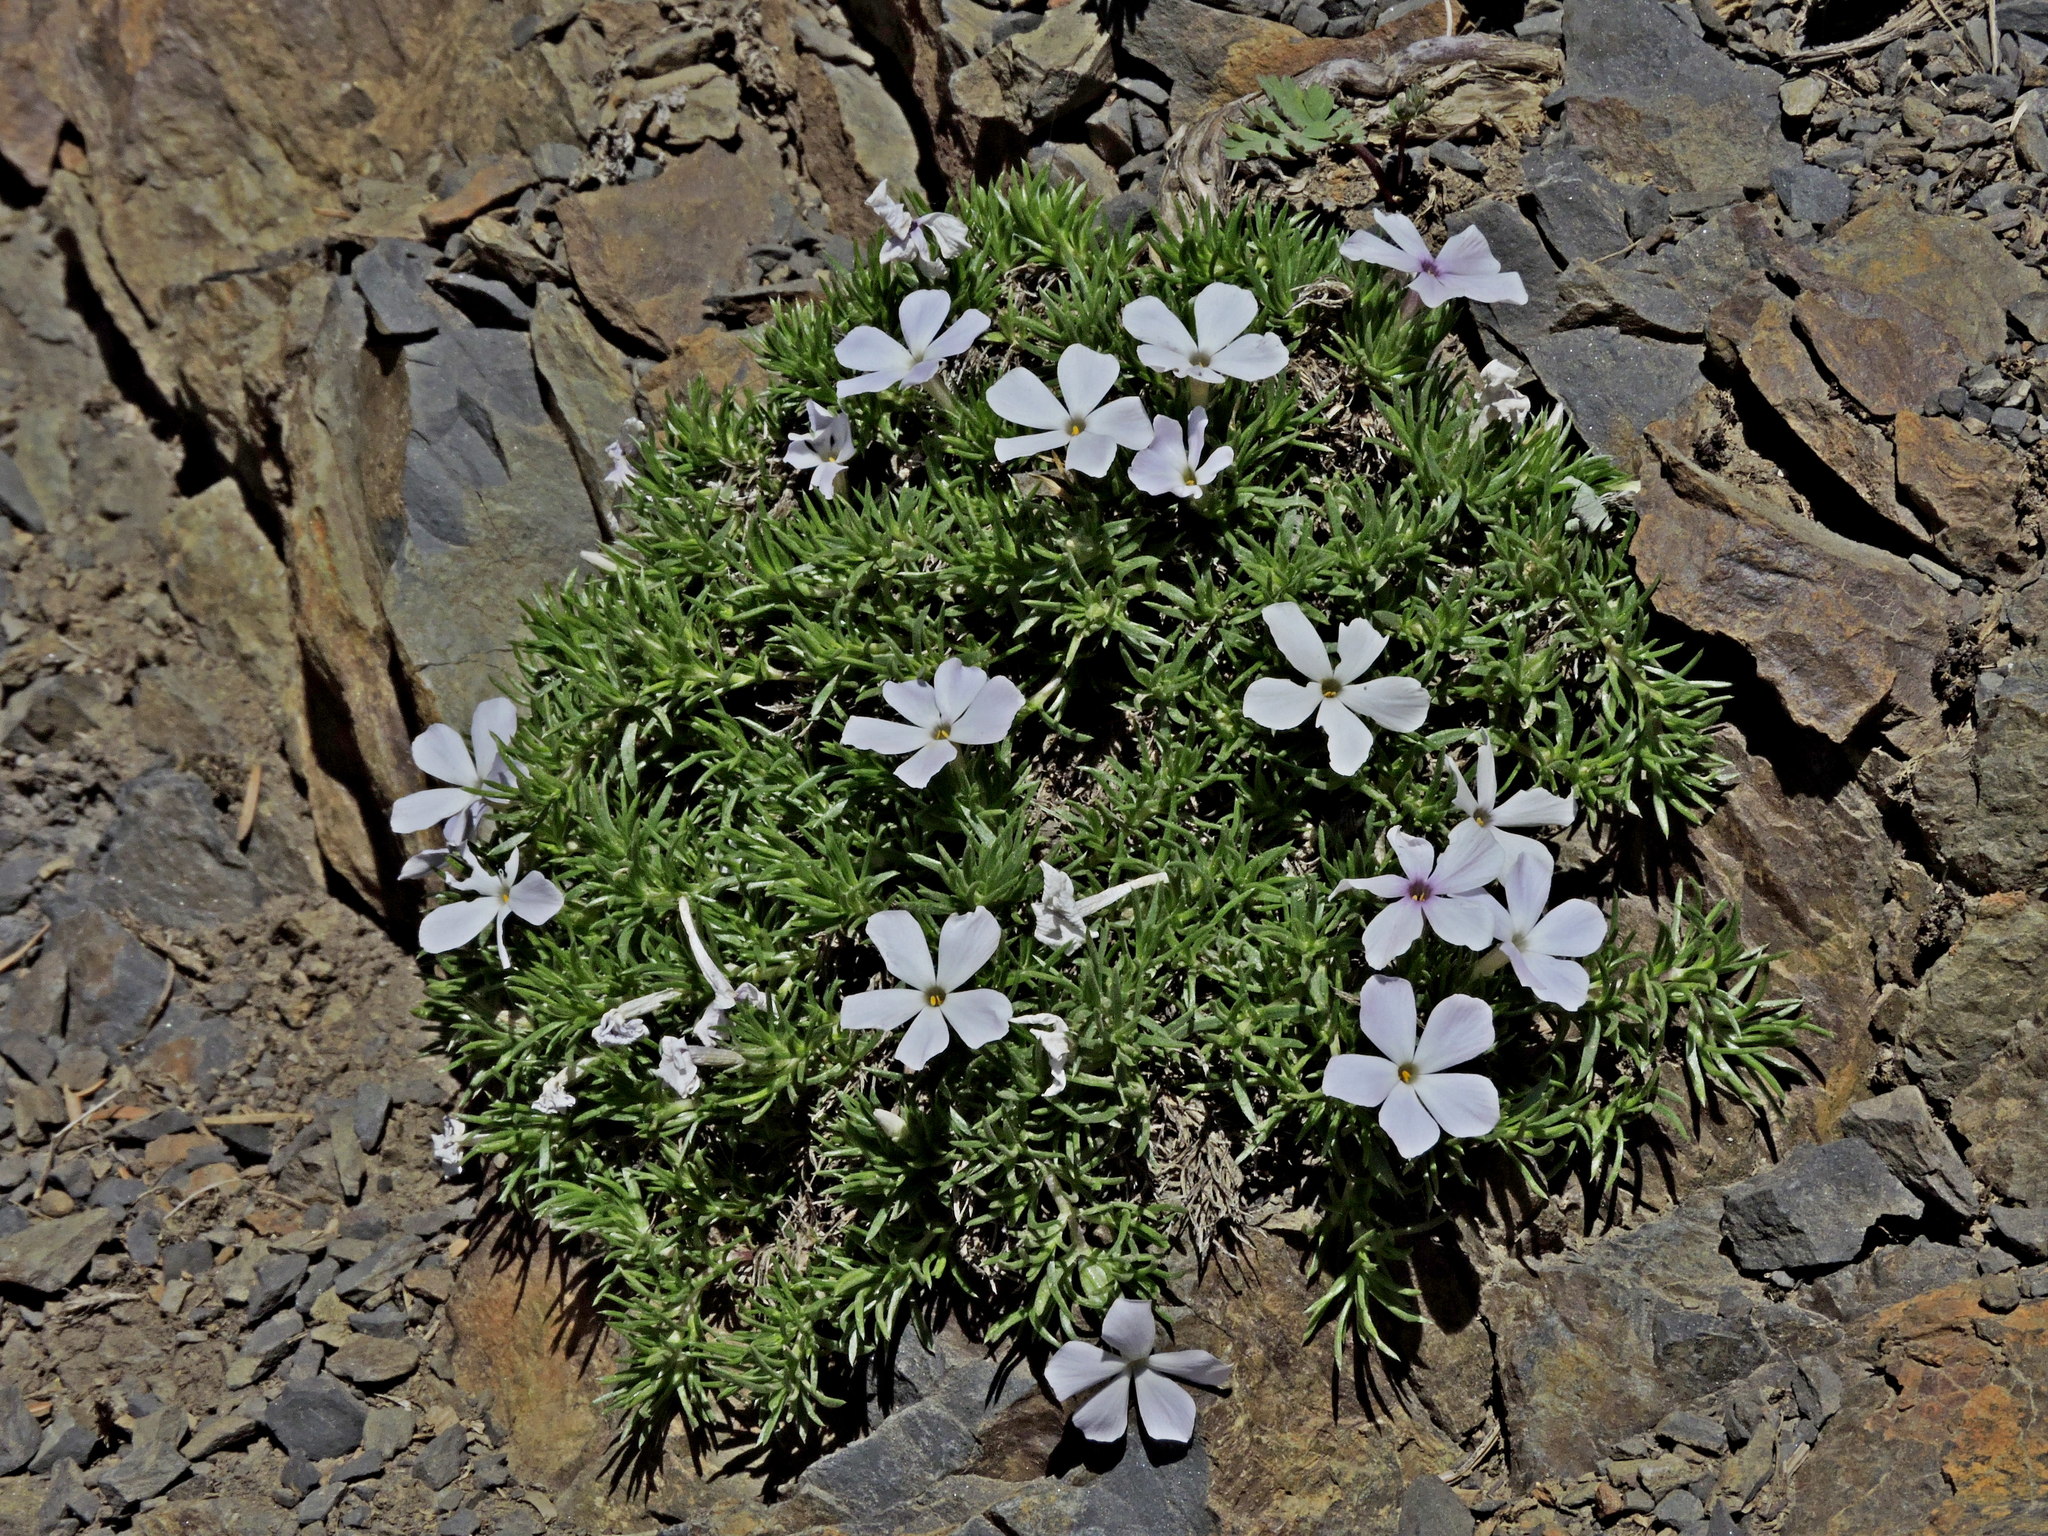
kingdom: Plantae
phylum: Tracheophyta
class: Magnoliopsida
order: Ericales
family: Polemoniaceae
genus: Phlox
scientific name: Phlox diffusa
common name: Mat phlox
